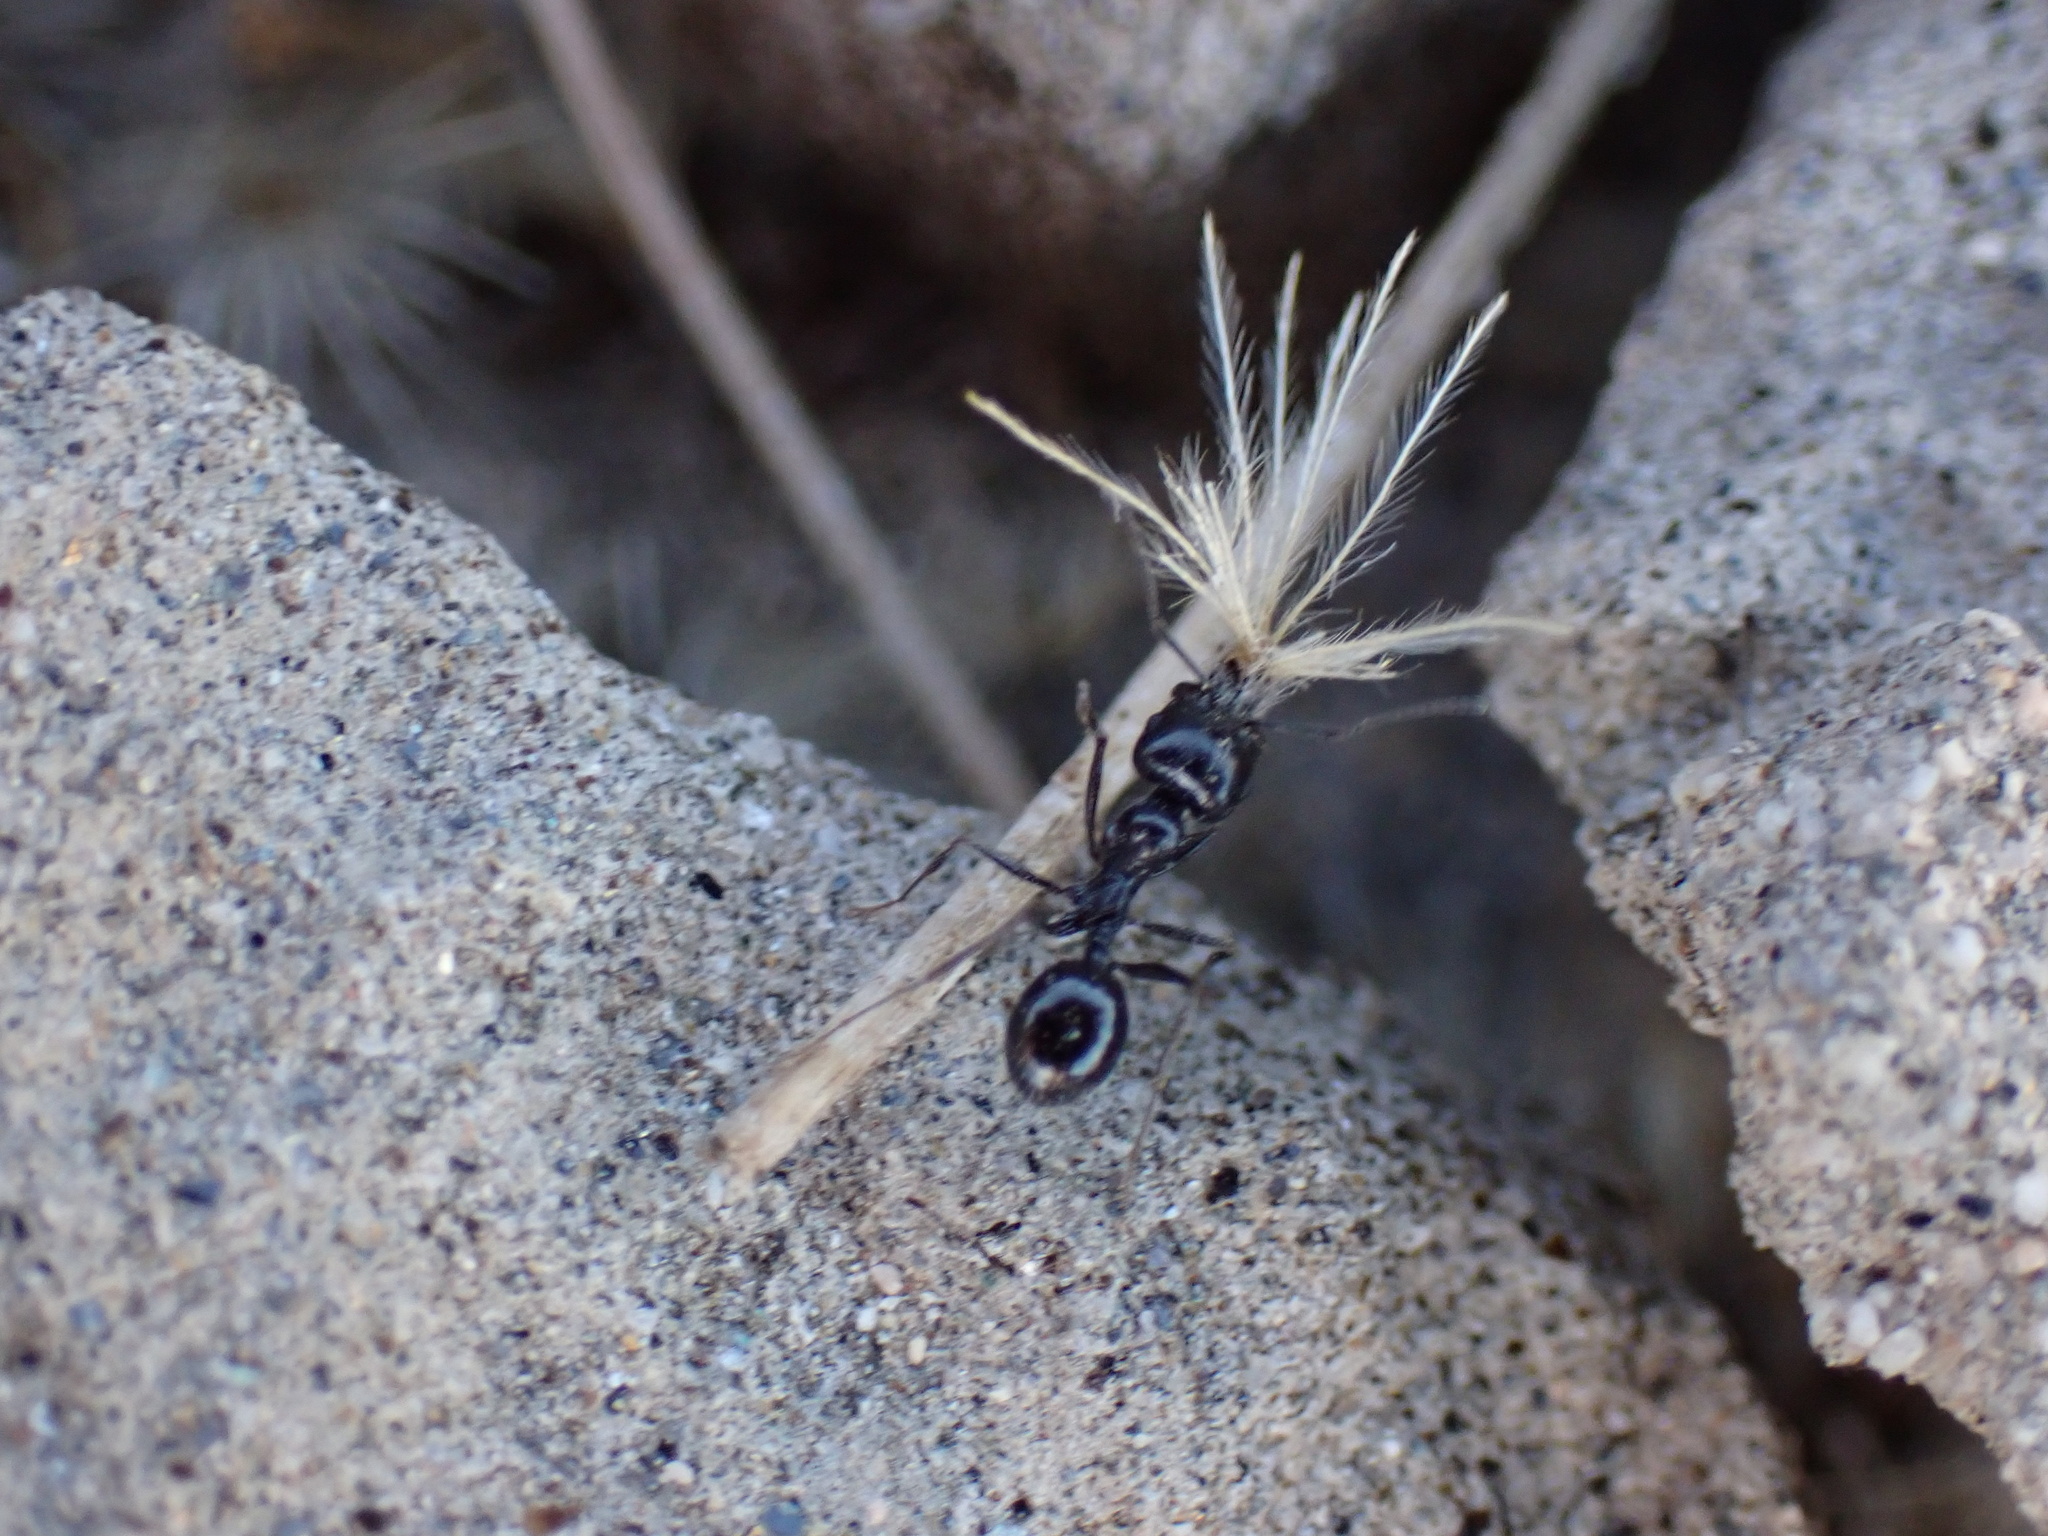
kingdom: Animalia
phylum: Arthropoda
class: Insecta
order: Hymenoptera
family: Formicidae
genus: Messor
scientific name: Messor pergandei
